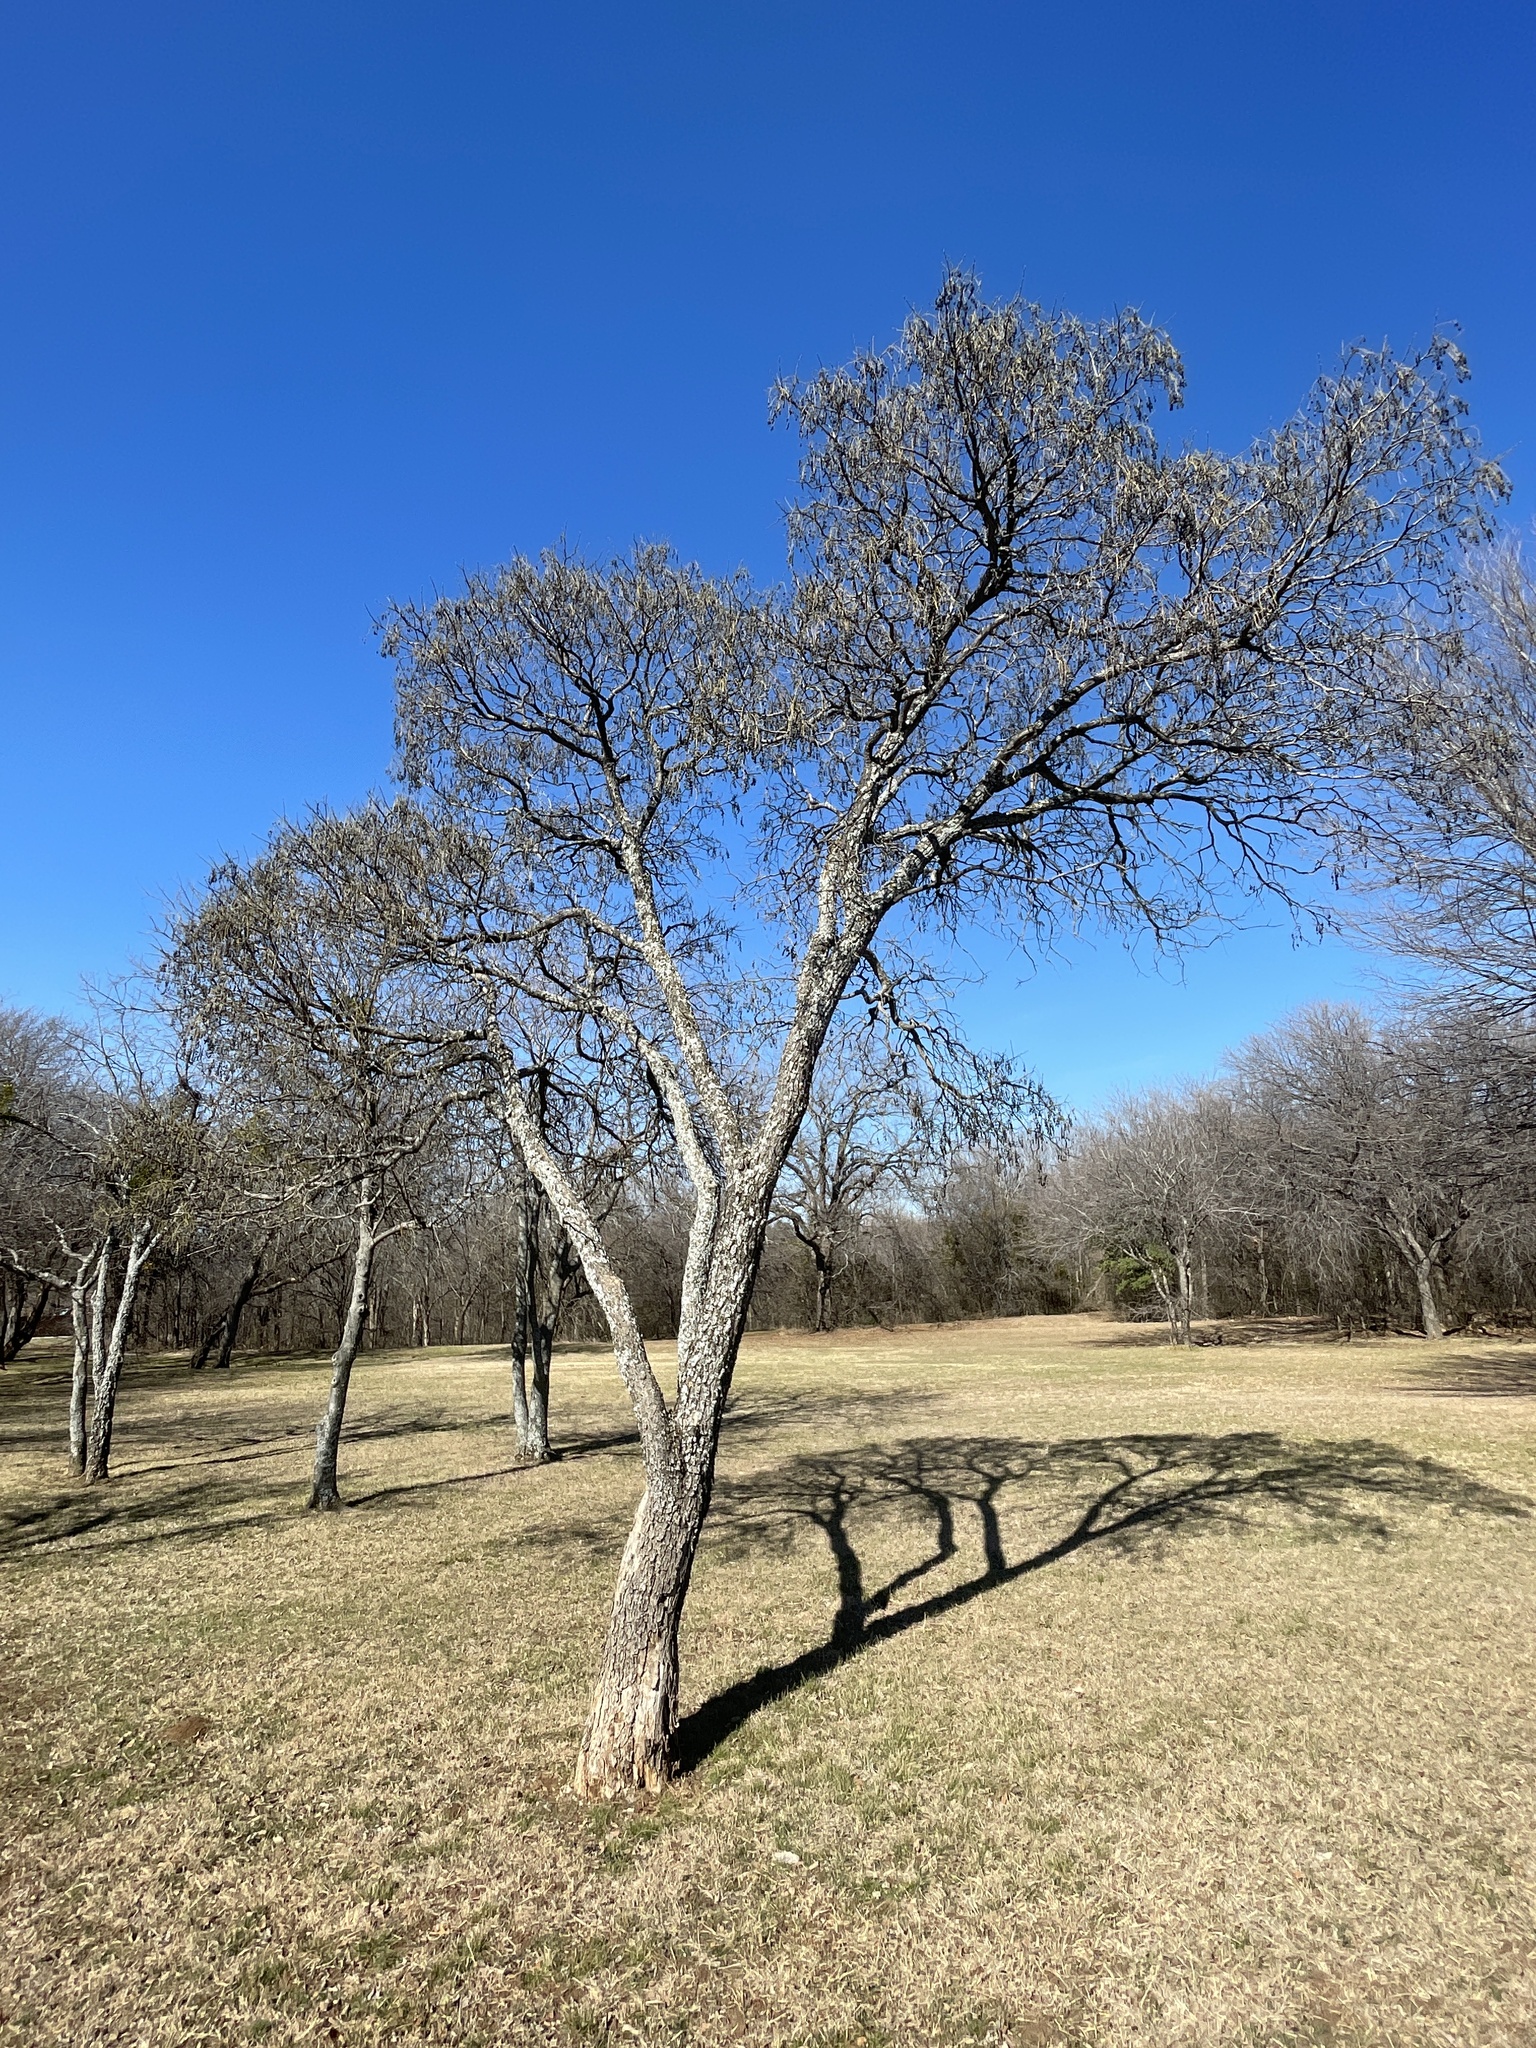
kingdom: Plantae
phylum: Tracheophyta
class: Magnoliopsida
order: Fabales
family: Fabaceae
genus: Styphnolobium
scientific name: Styphnolobium affine
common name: Texas sophora
